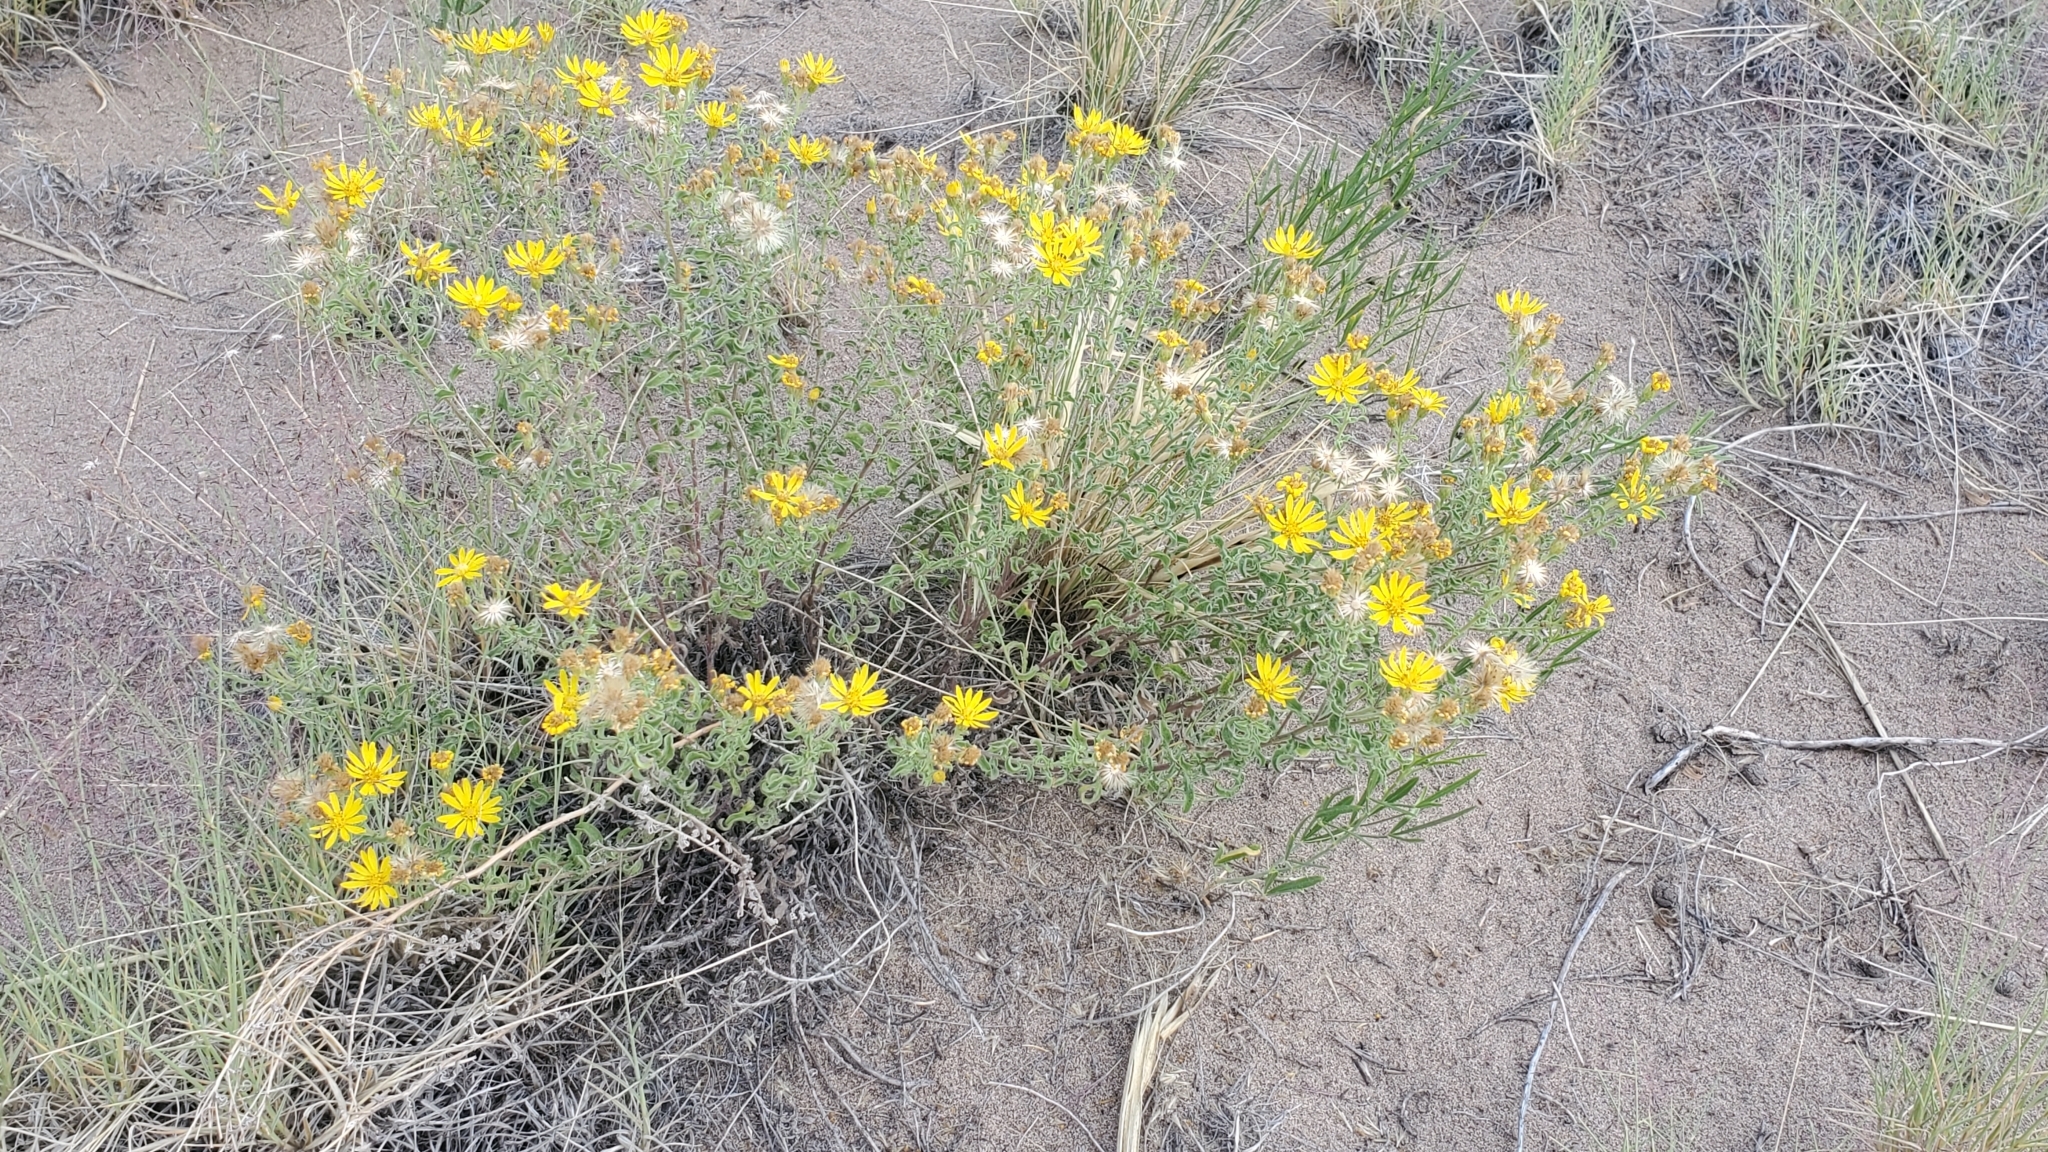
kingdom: Plantae
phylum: Tracheophyta
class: Magnoliopsida
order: Asterales
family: Asteraceae
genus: Heterotheca
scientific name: Heterotheca hirsutissima
